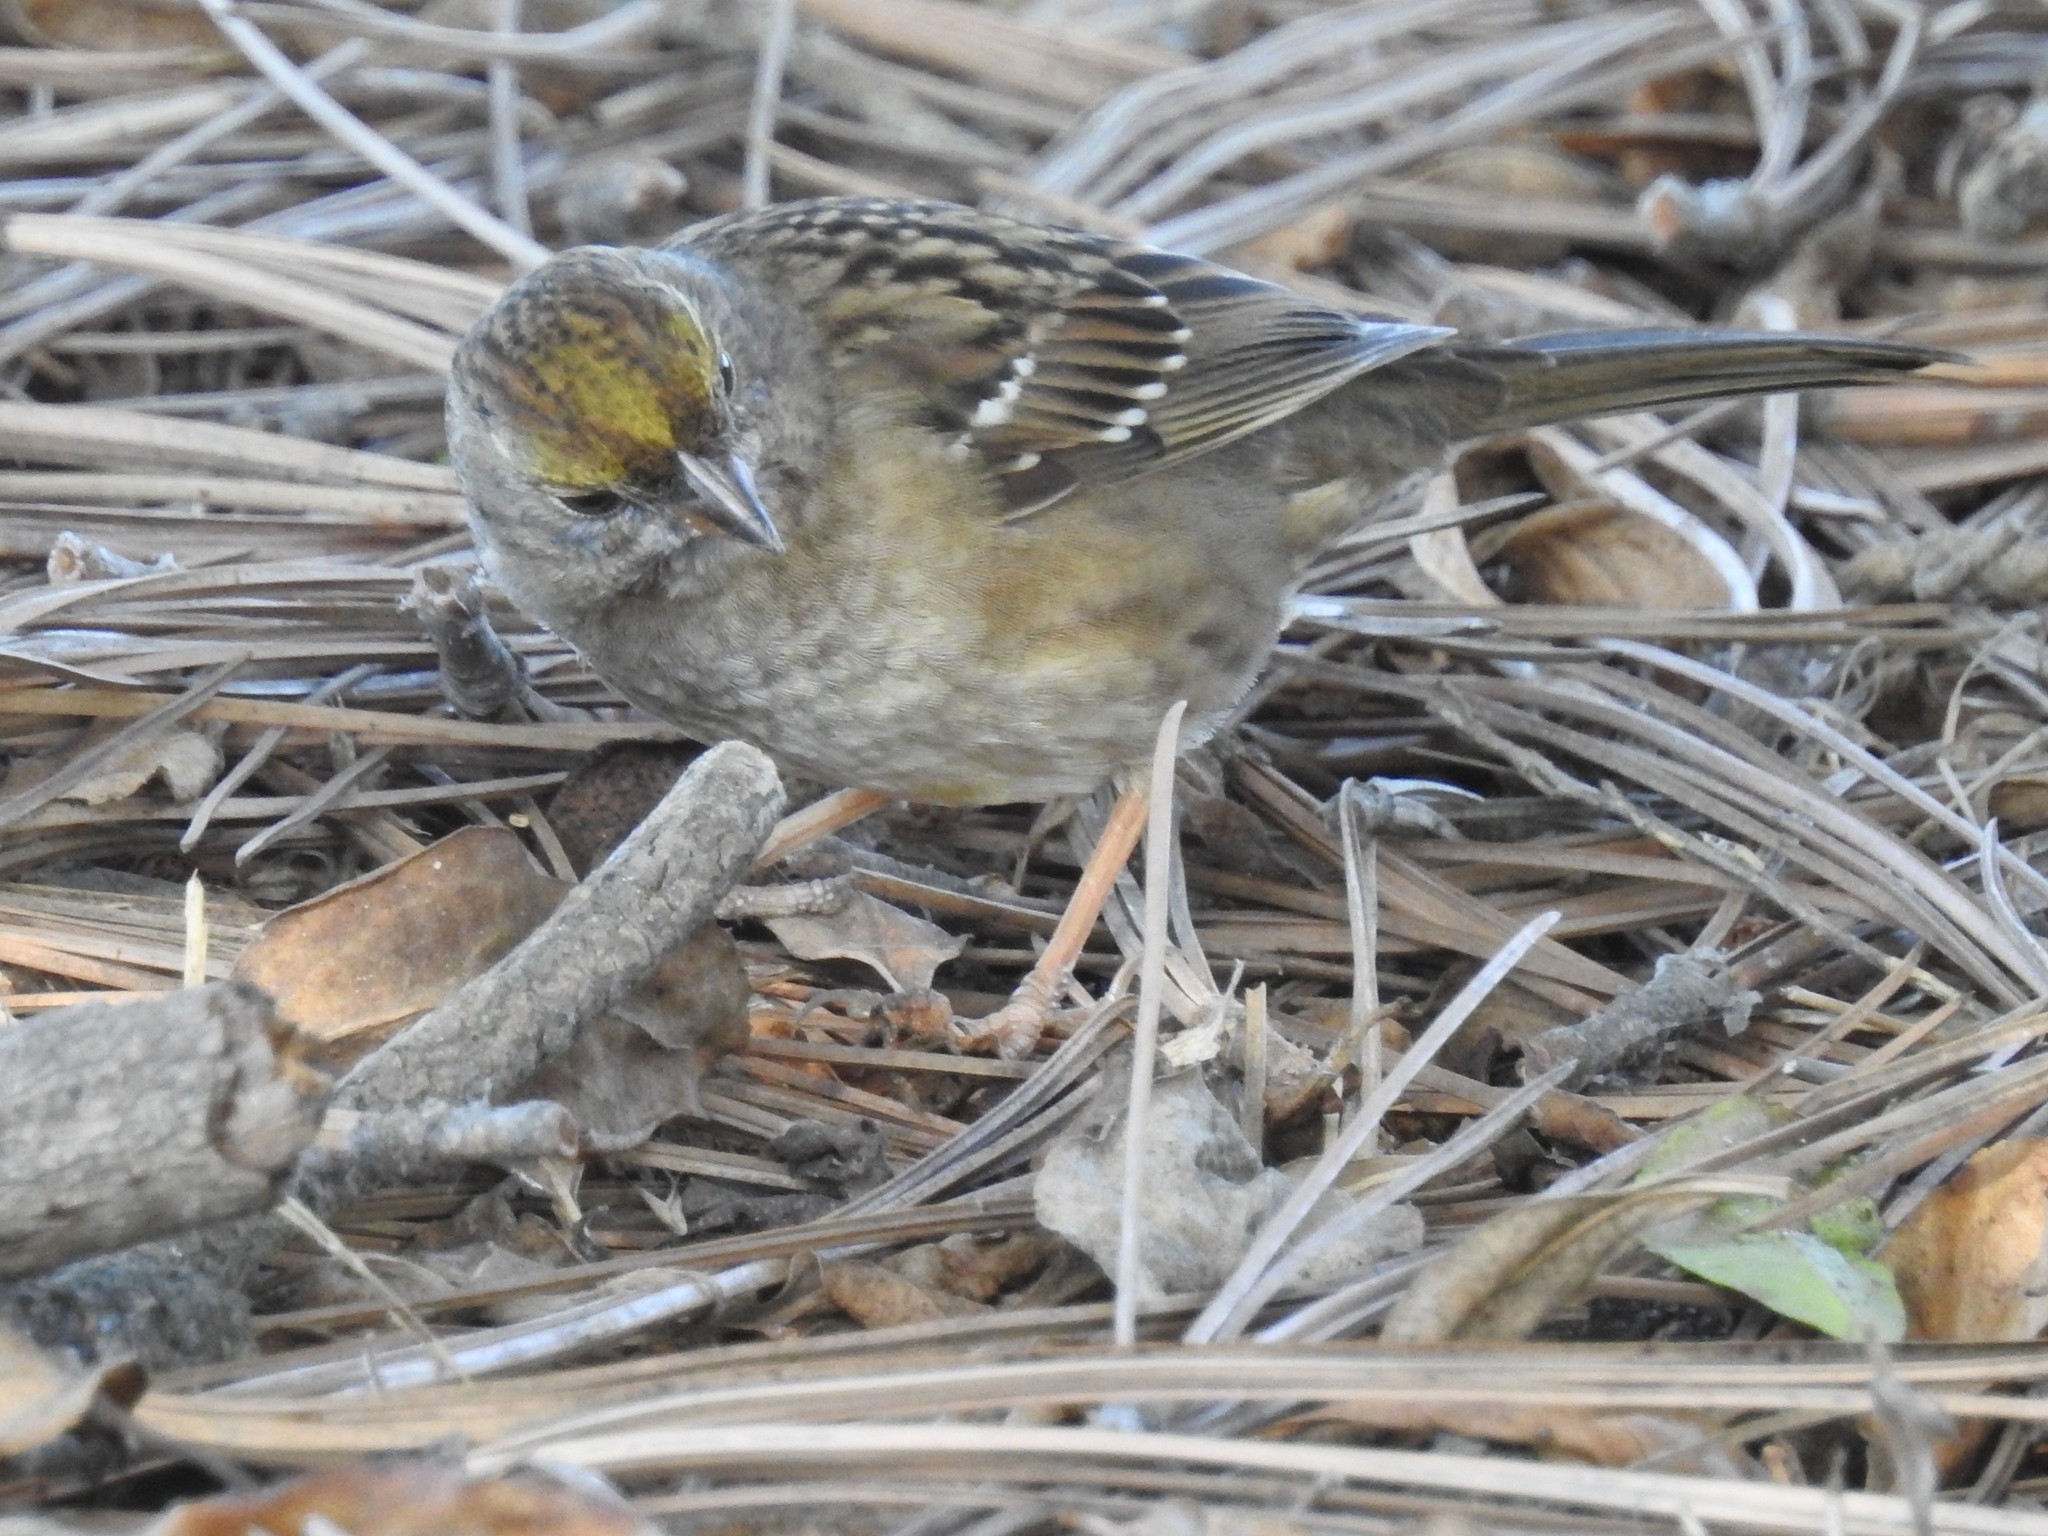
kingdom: Animalia
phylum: Chordata
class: Aves
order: Passeriformes
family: Passerellidae
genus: Zonotrichia
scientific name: Zonotrichia atricapilla
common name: Golden-crowned sparrow
